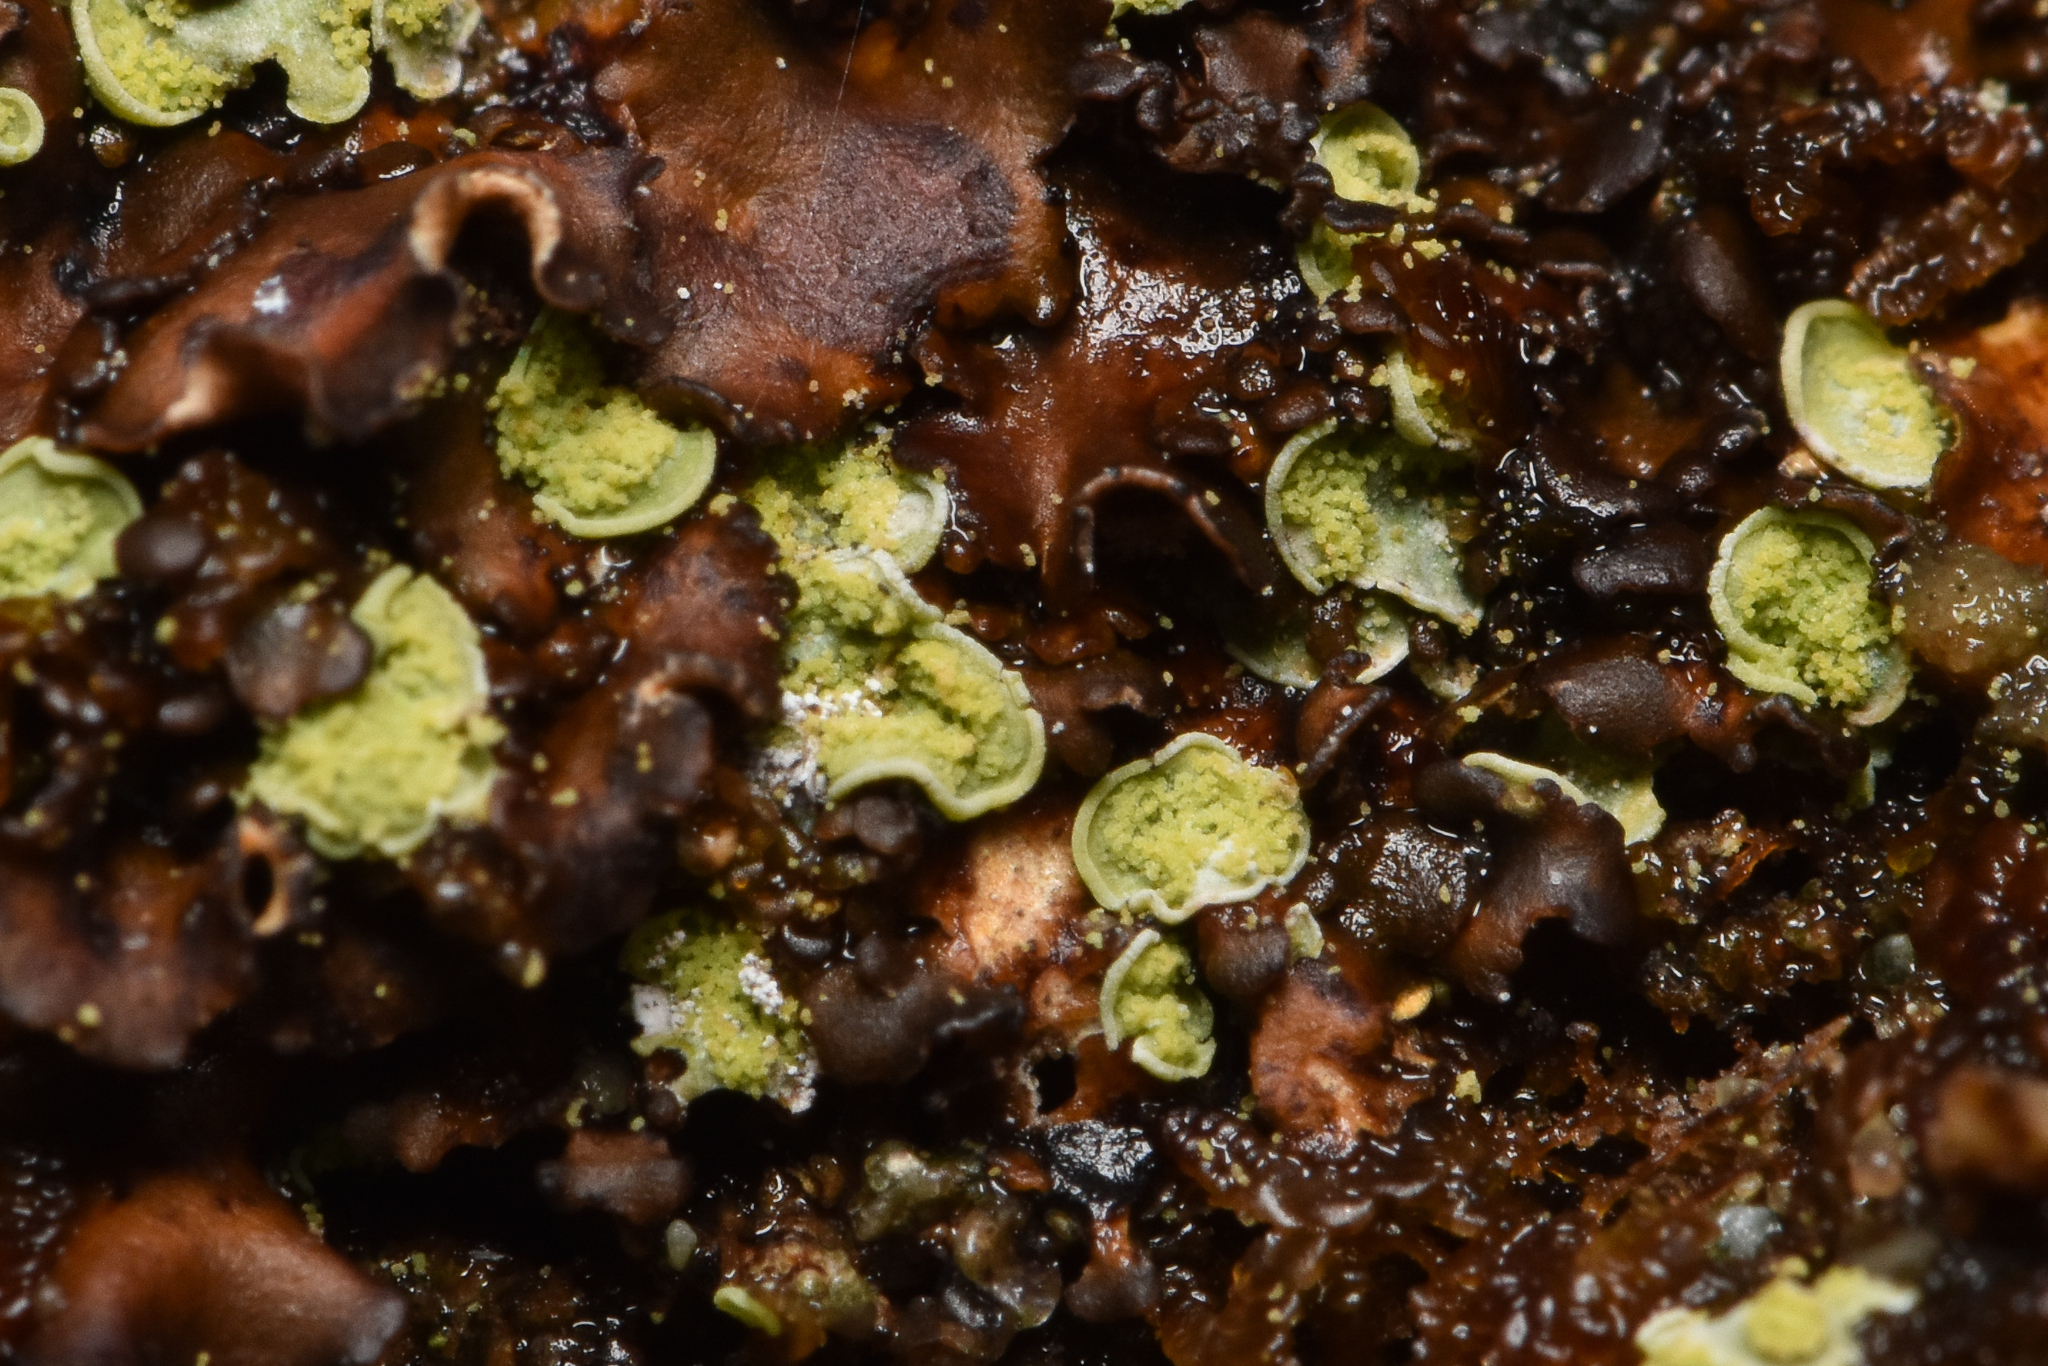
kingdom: Fungi
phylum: Ascomycota
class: Eurotiomycetes
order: Verrucariales
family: Verrucariaceae
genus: Normandina
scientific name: Normandina pulchella
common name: Elf ears lichen
